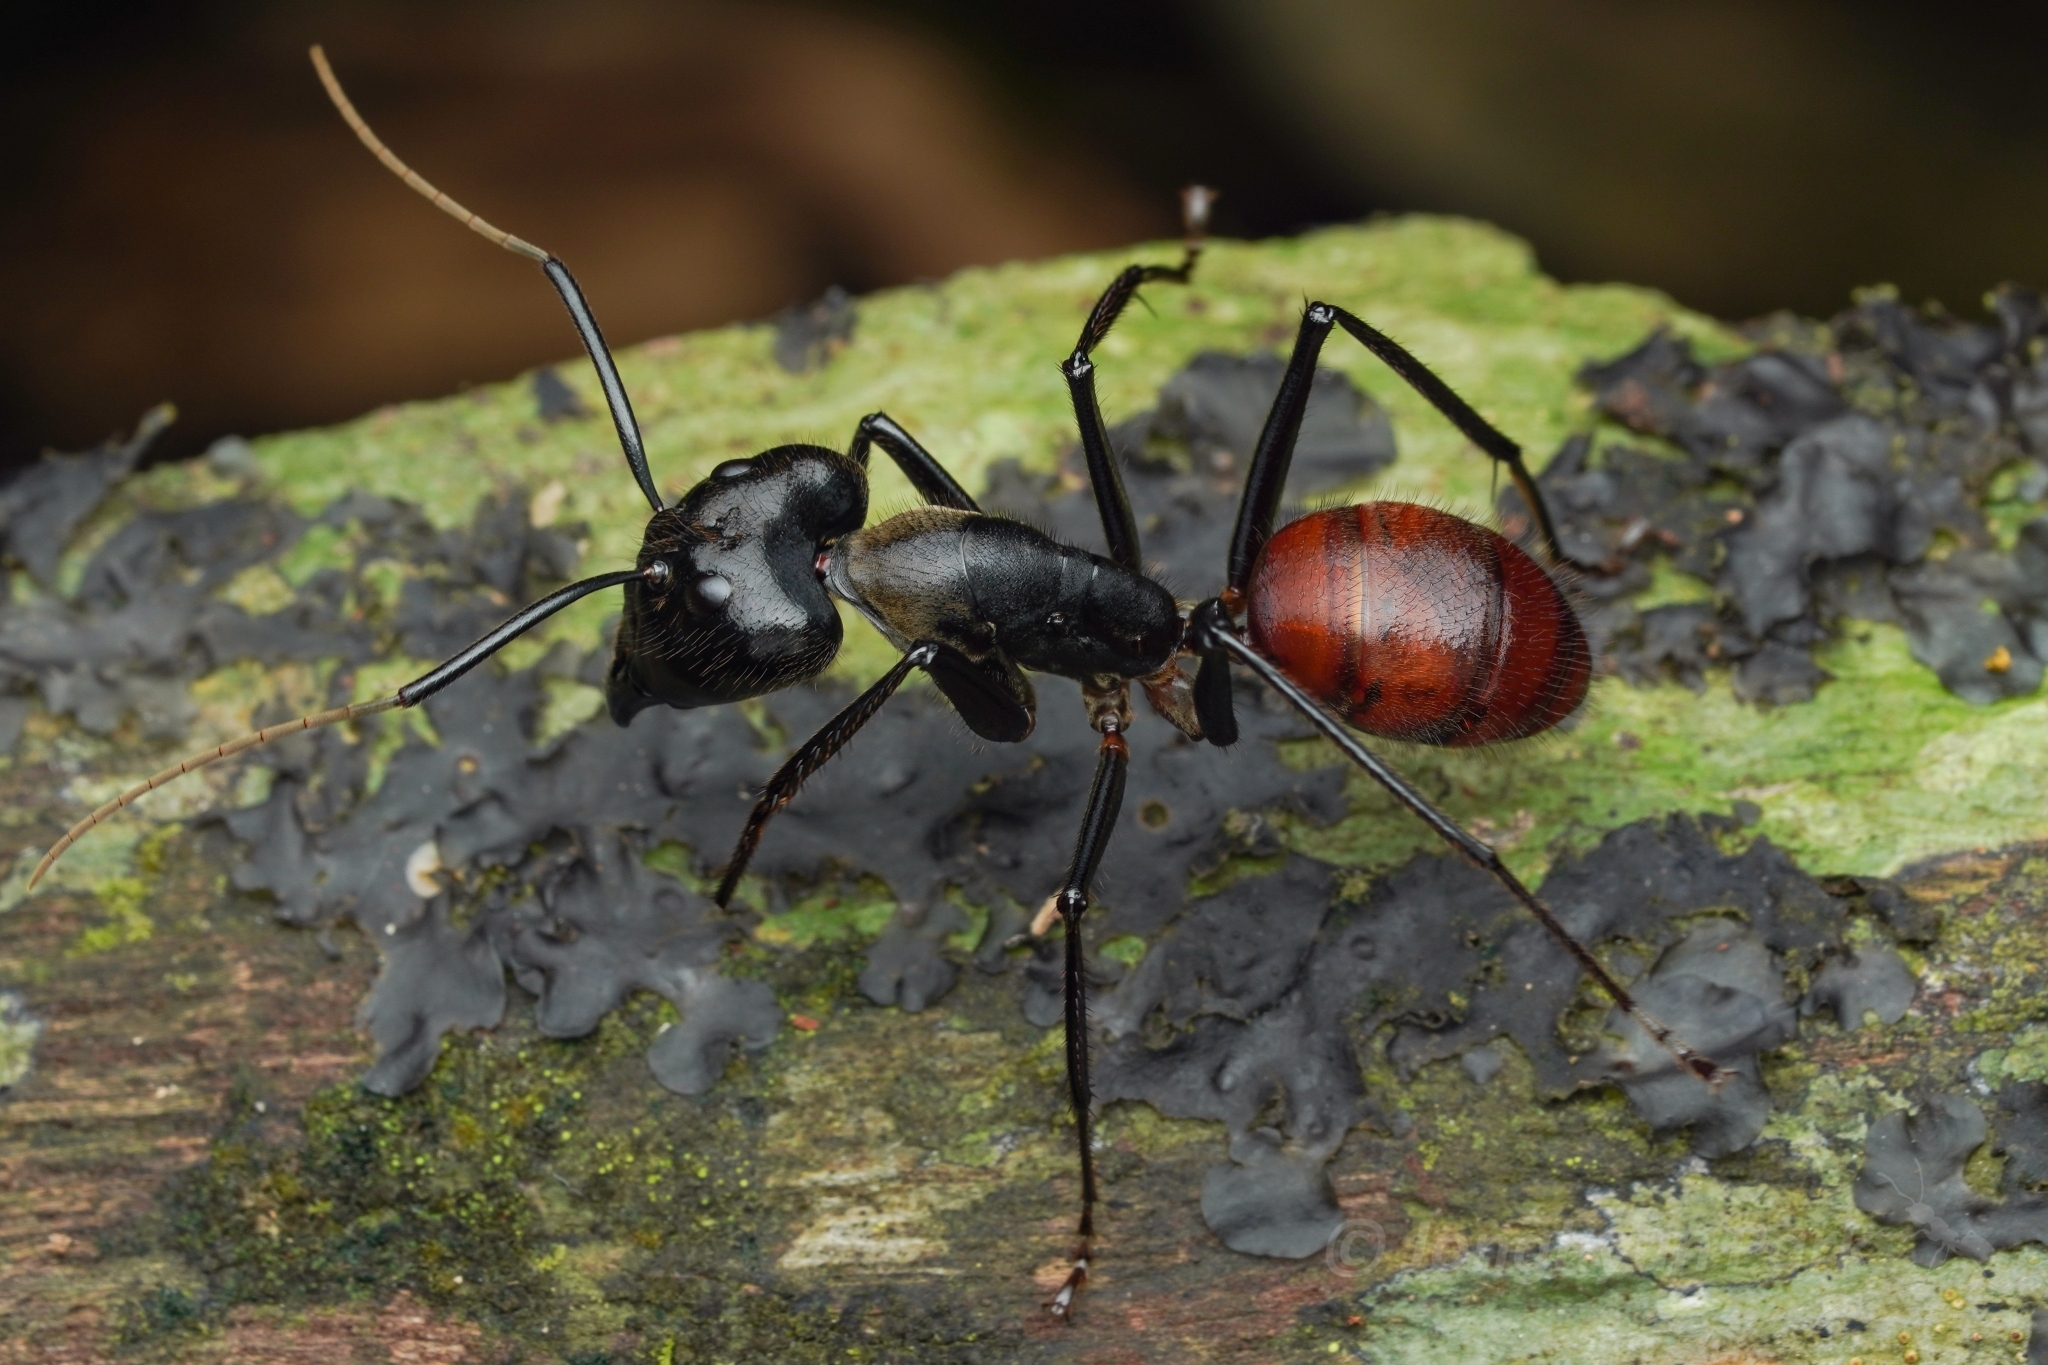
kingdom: Animalia
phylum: Arthropoda
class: Insecta
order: Hymenoptera
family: Formicidae
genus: Dinomyrmex
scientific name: Dinomyrmex
